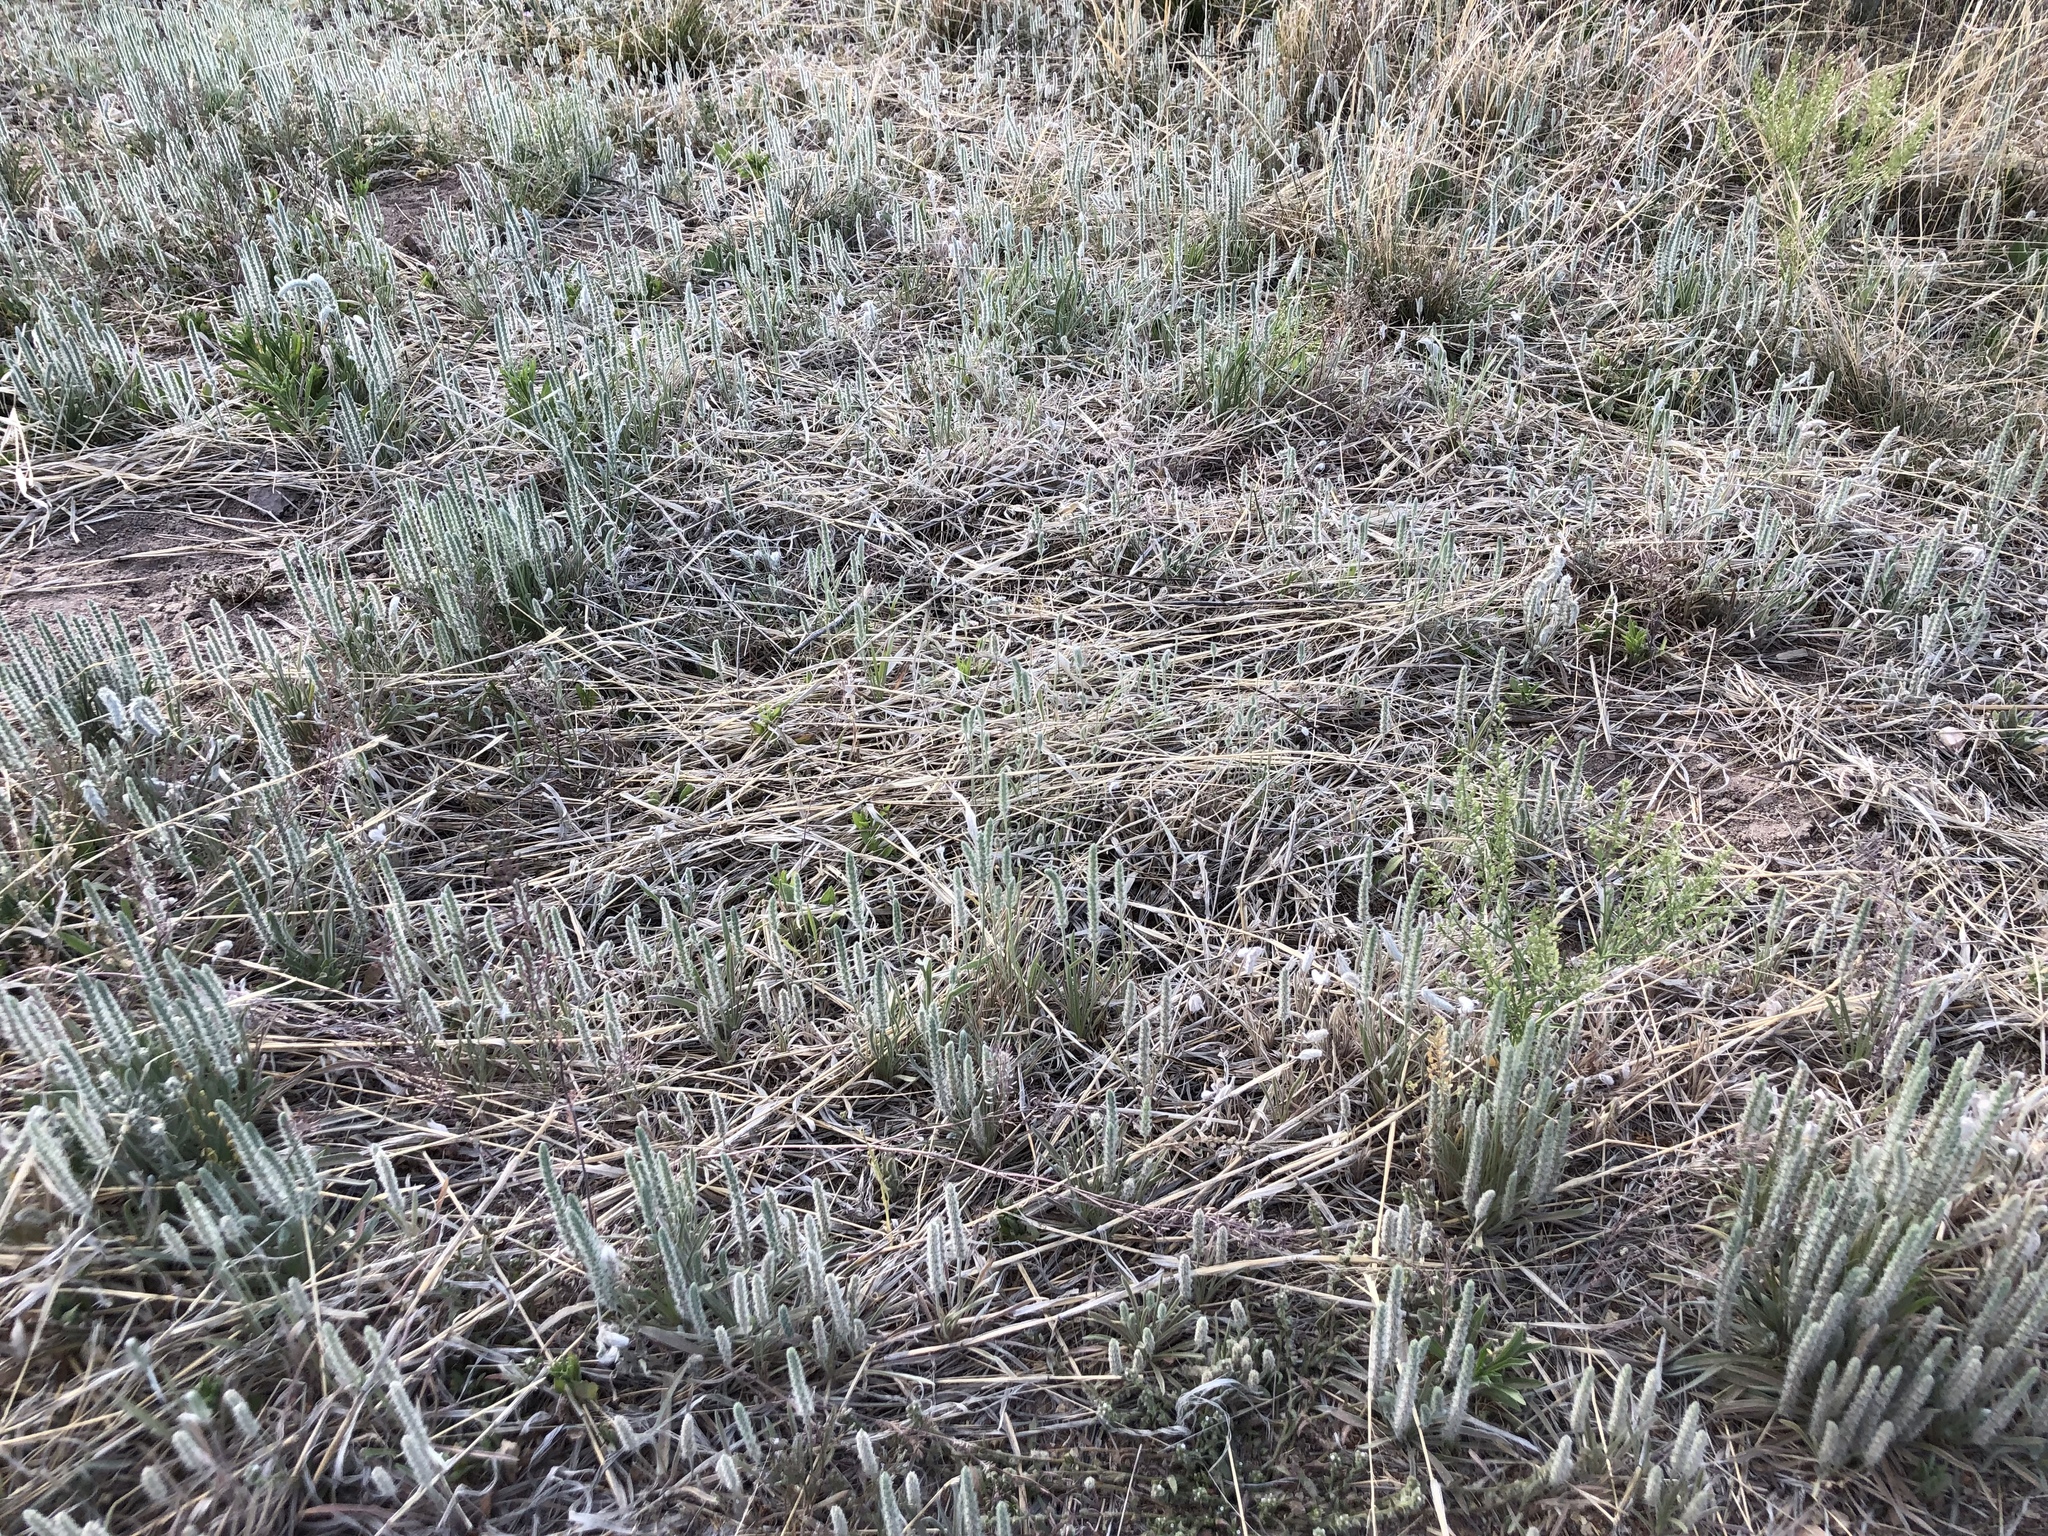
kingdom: Plantae
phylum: Tracheophyta
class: Magnoliopsida
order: Lamiales
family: Plantaginaceae
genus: Plantago
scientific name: Plantago patagonica
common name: Patagonia indian-wheat
